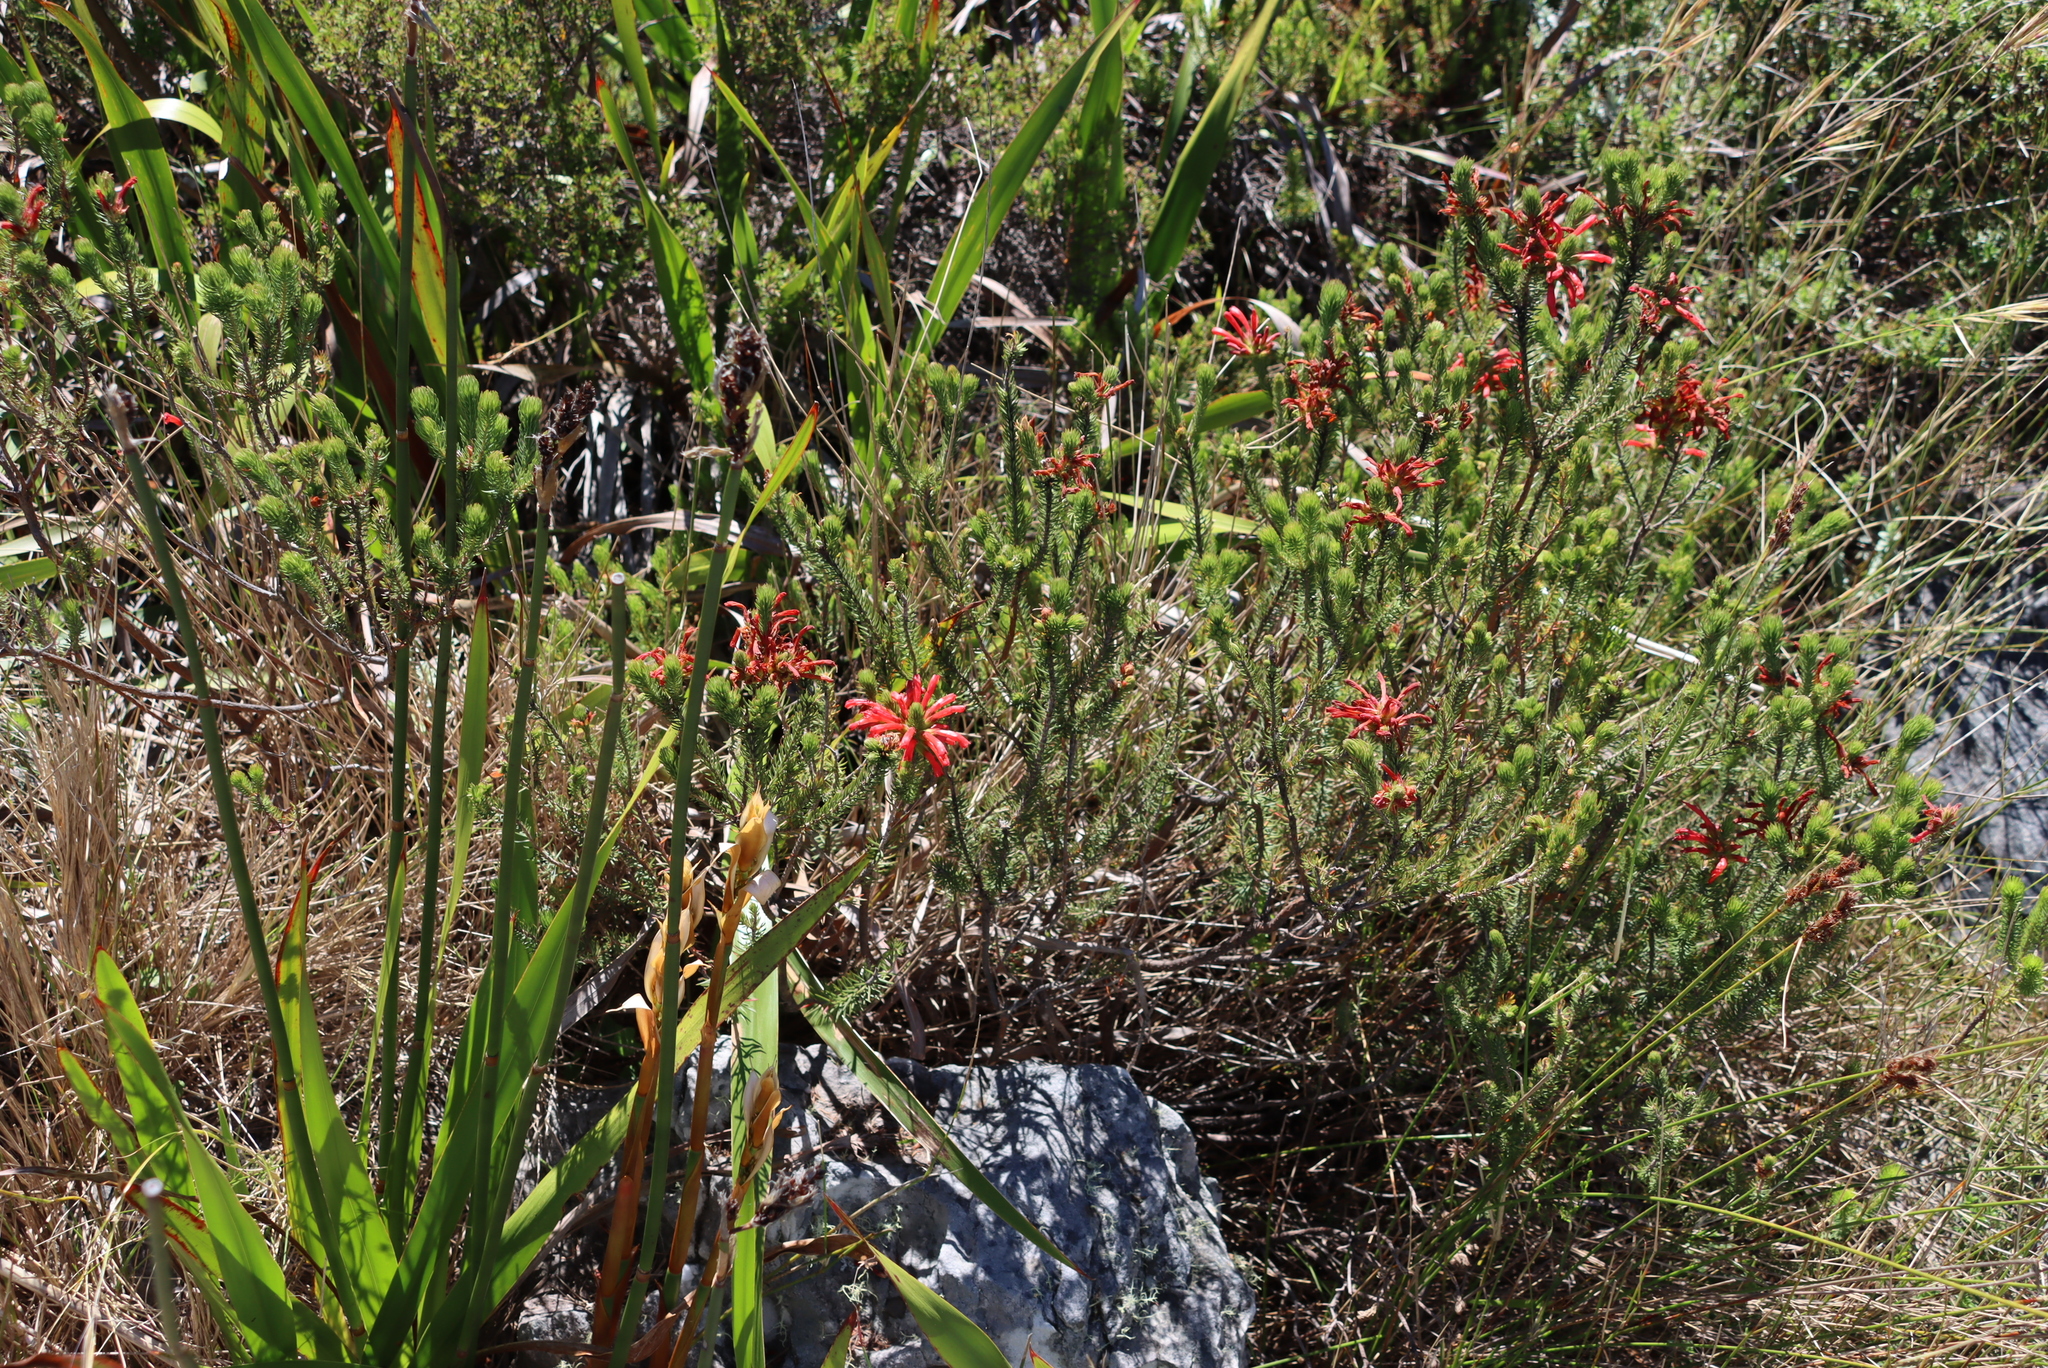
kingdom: Plantae
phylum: Tracheophyta
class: Magnoliopsida
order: Ericales
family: Ericaceae
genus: Erica
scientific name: Erica abietina
